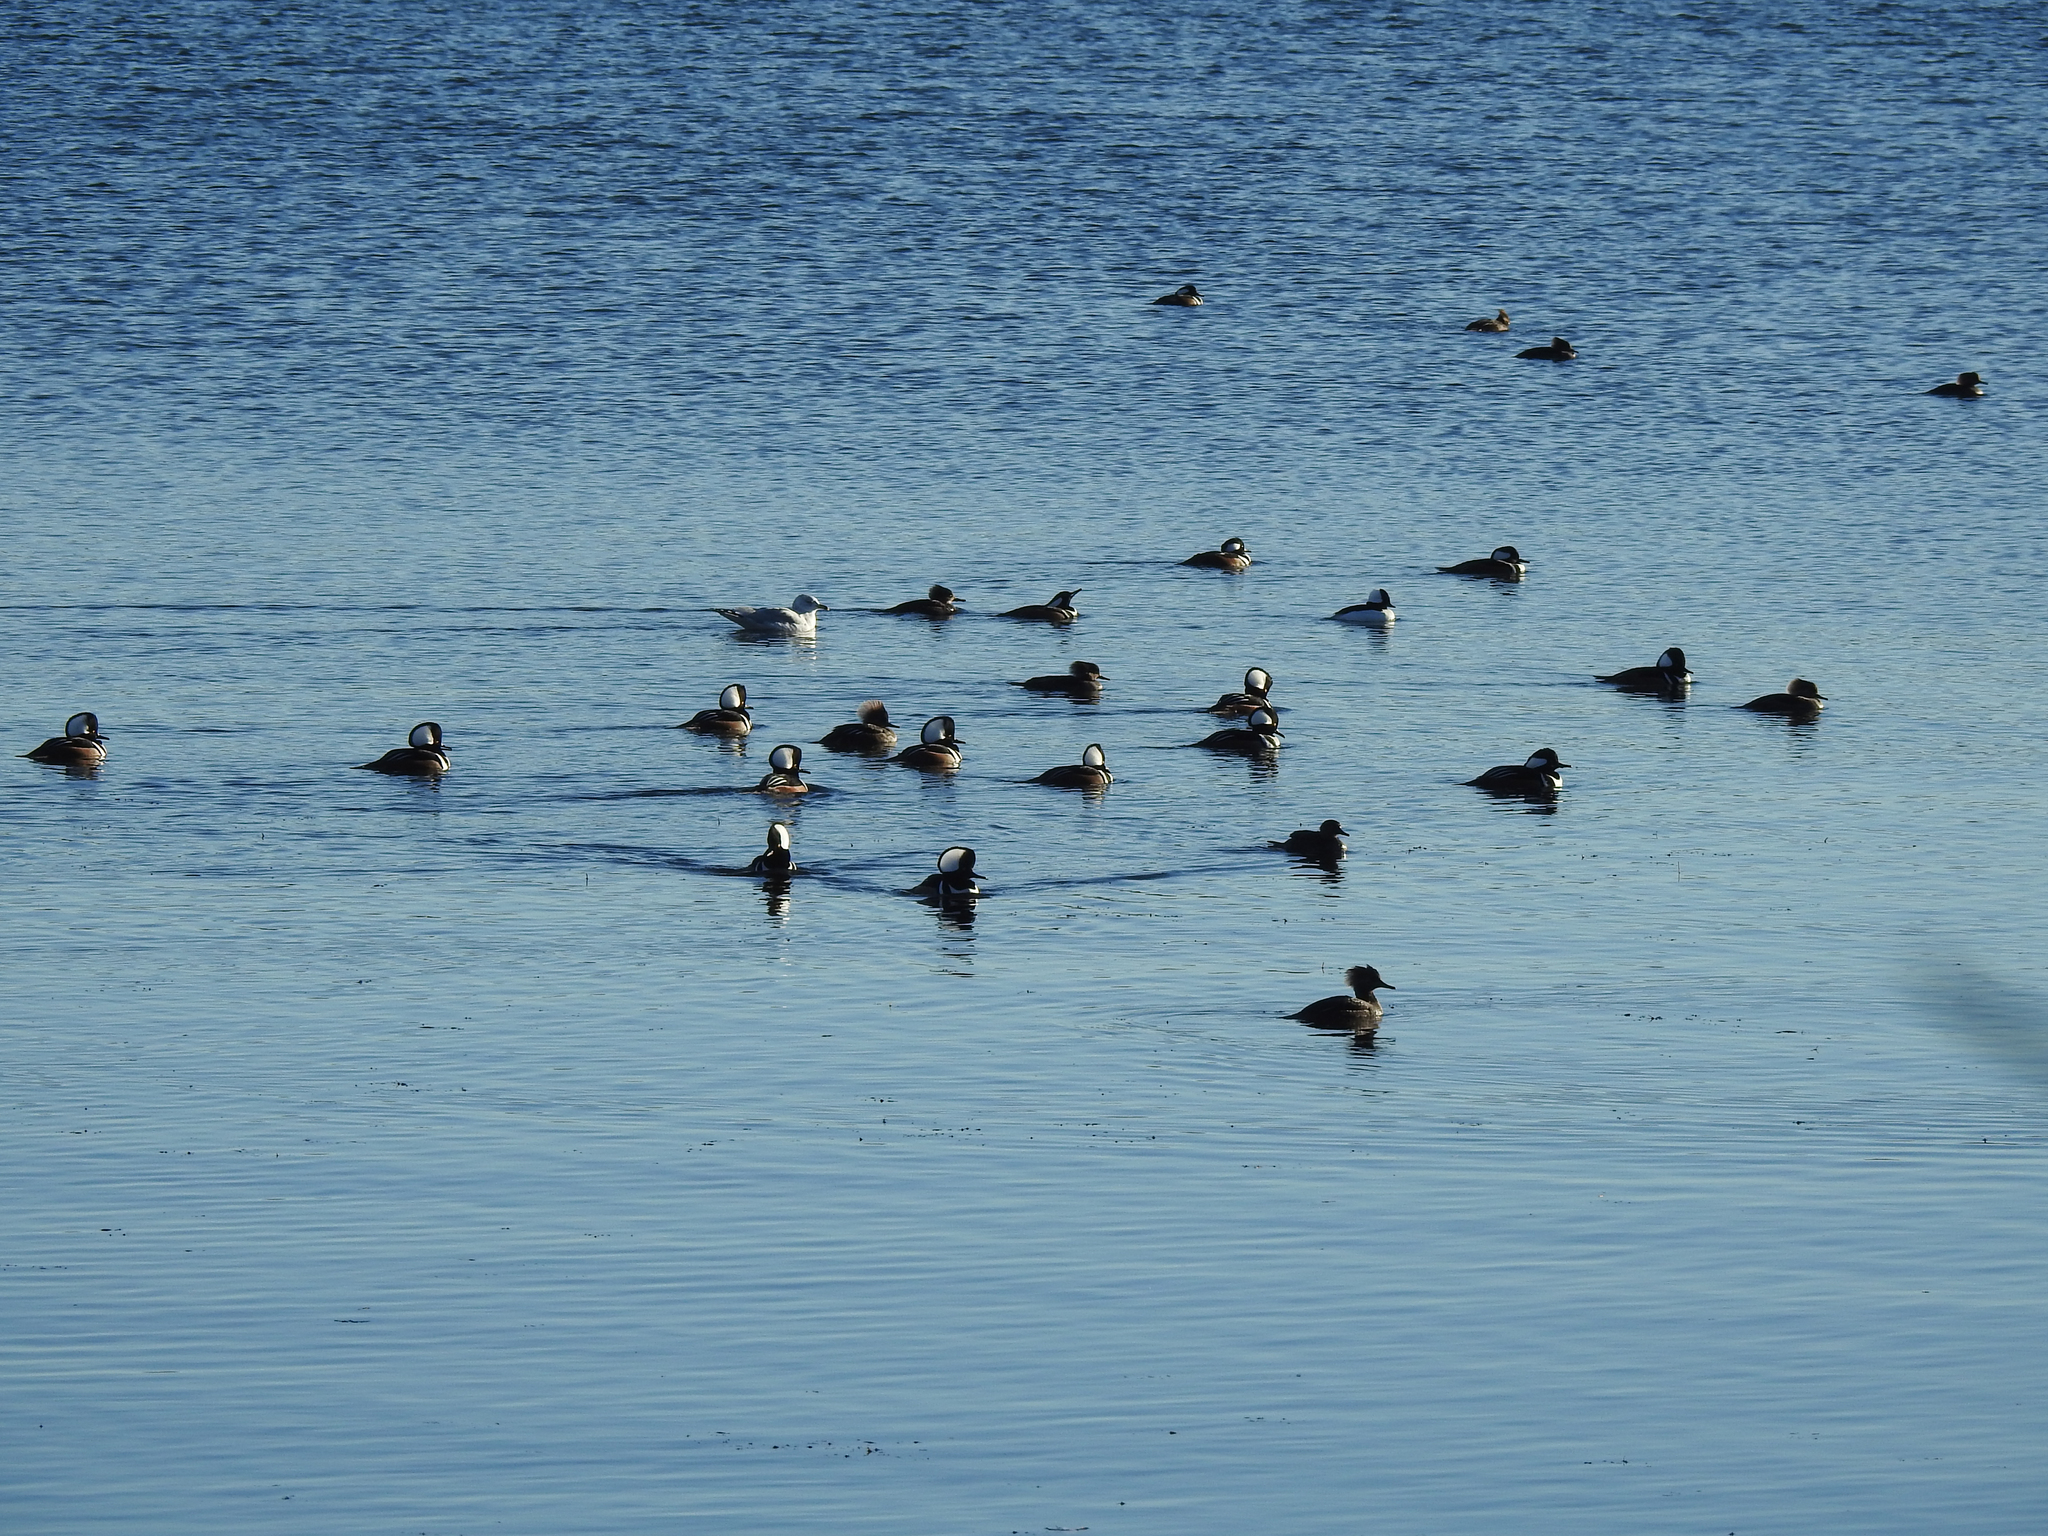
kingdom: Animalia
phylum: Chordata
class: Aves
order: Anseriformes
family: Anatidae
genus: Lophodytes
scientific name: Lophodytes cucullatus
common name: Hooded merganser
